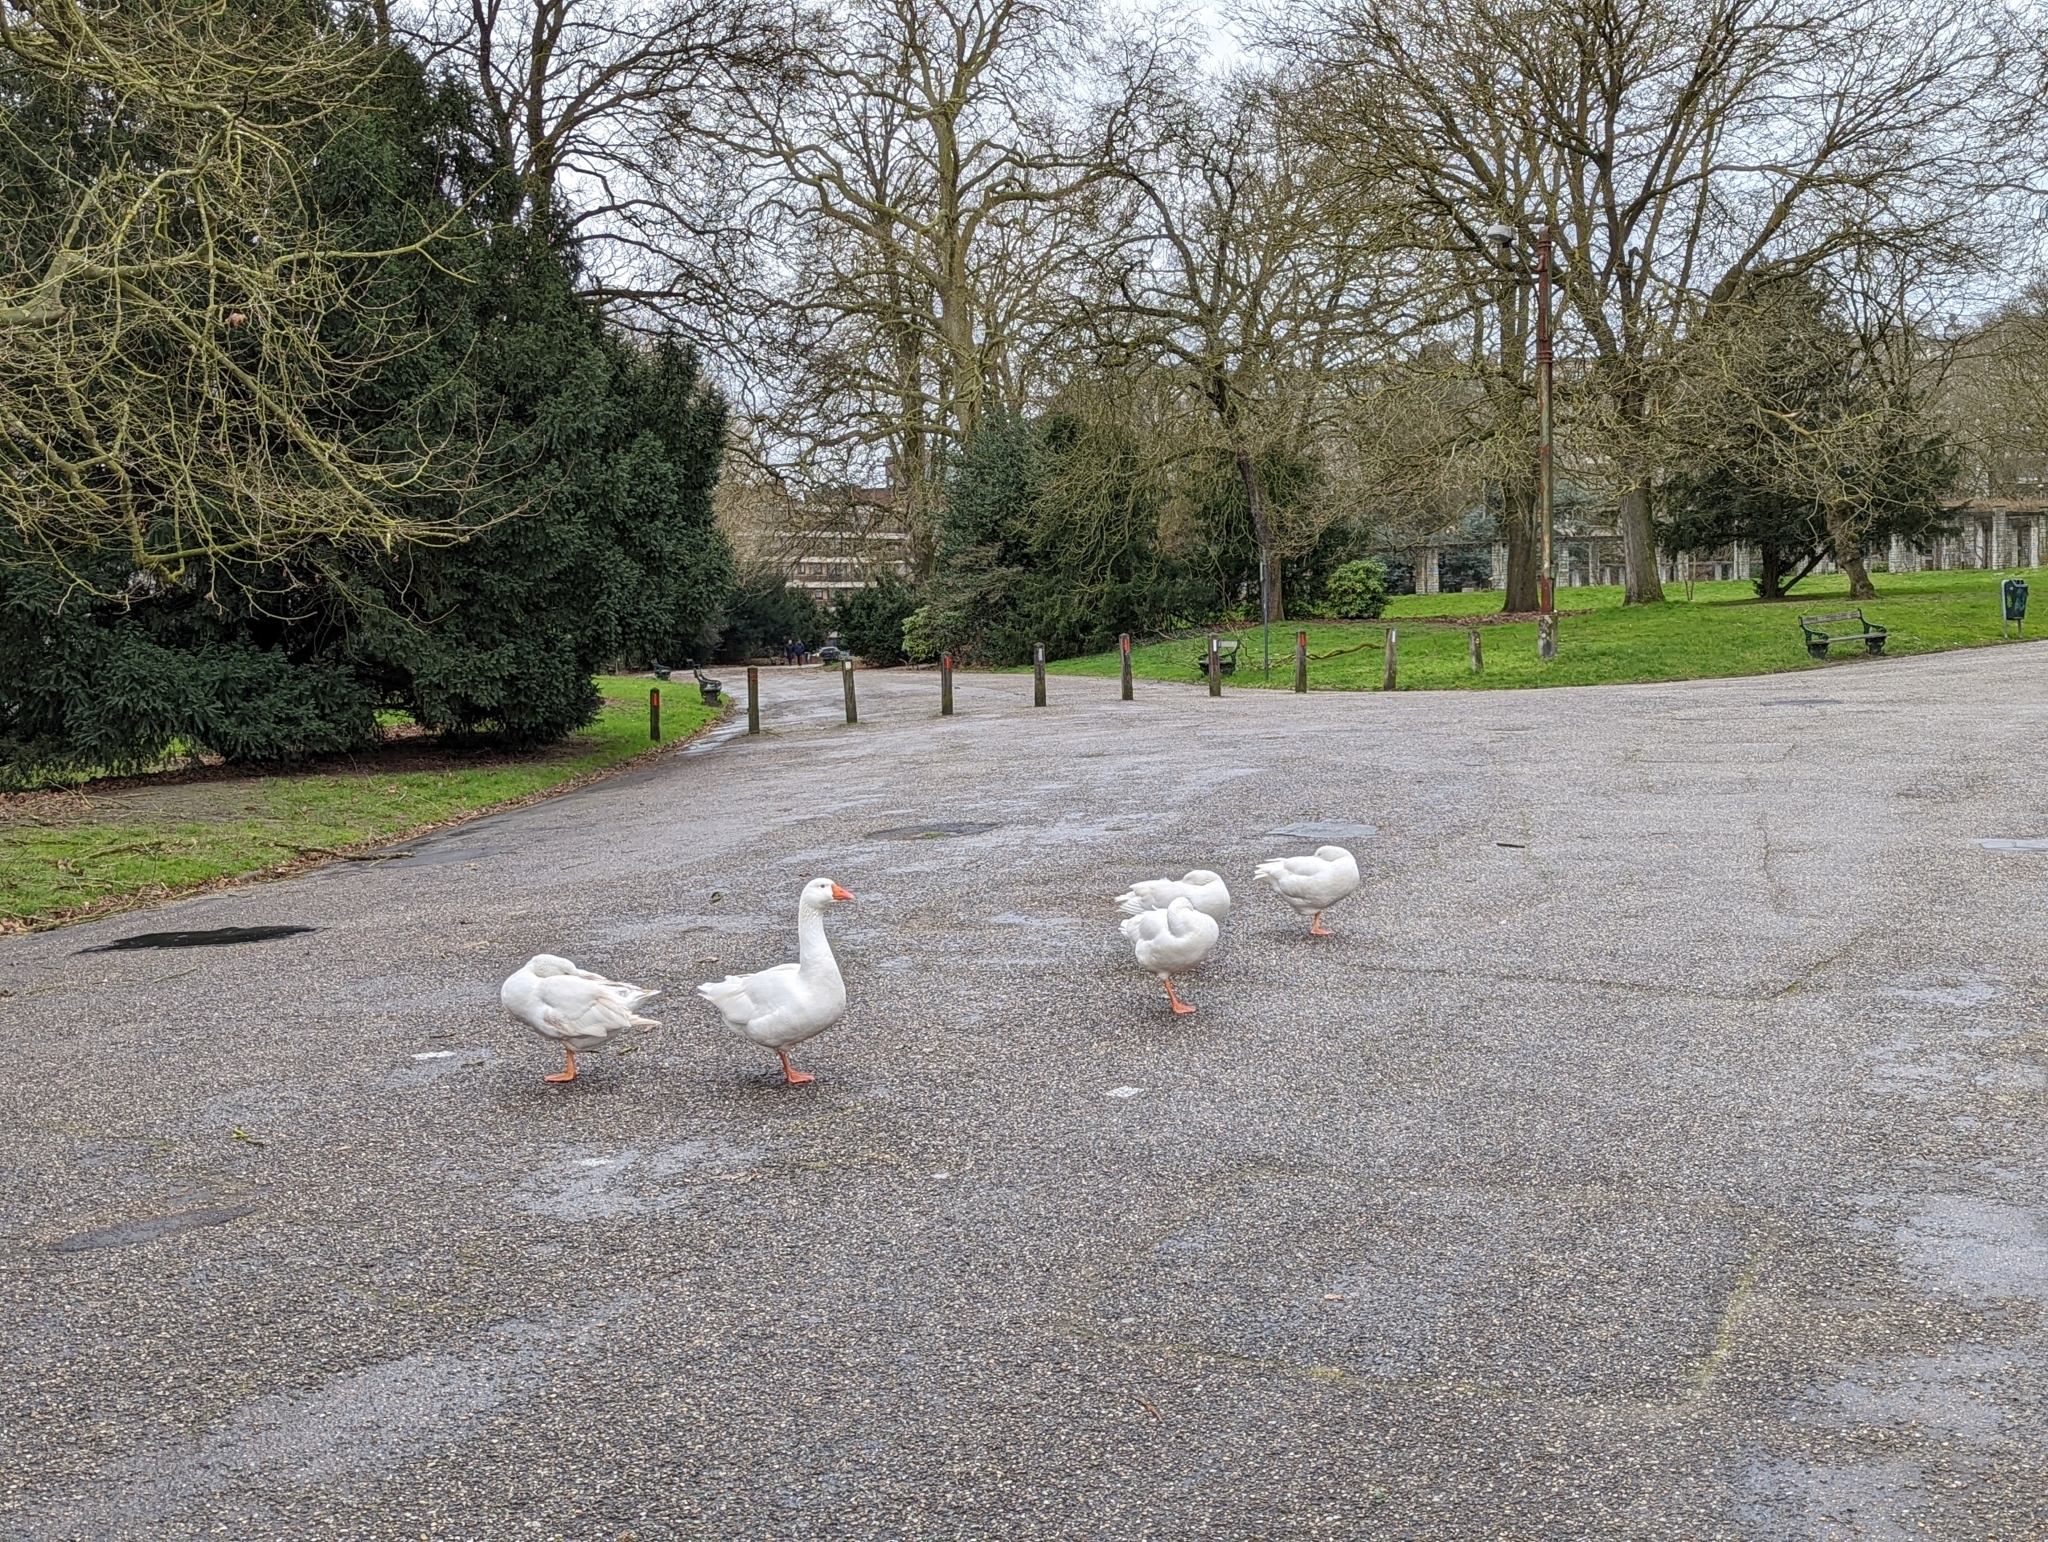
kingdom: Animalia
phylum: Chordata
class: Aves
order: Anseriformes
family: Anatidae
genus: Anser
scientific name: Anser anser
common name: Greylag goose
